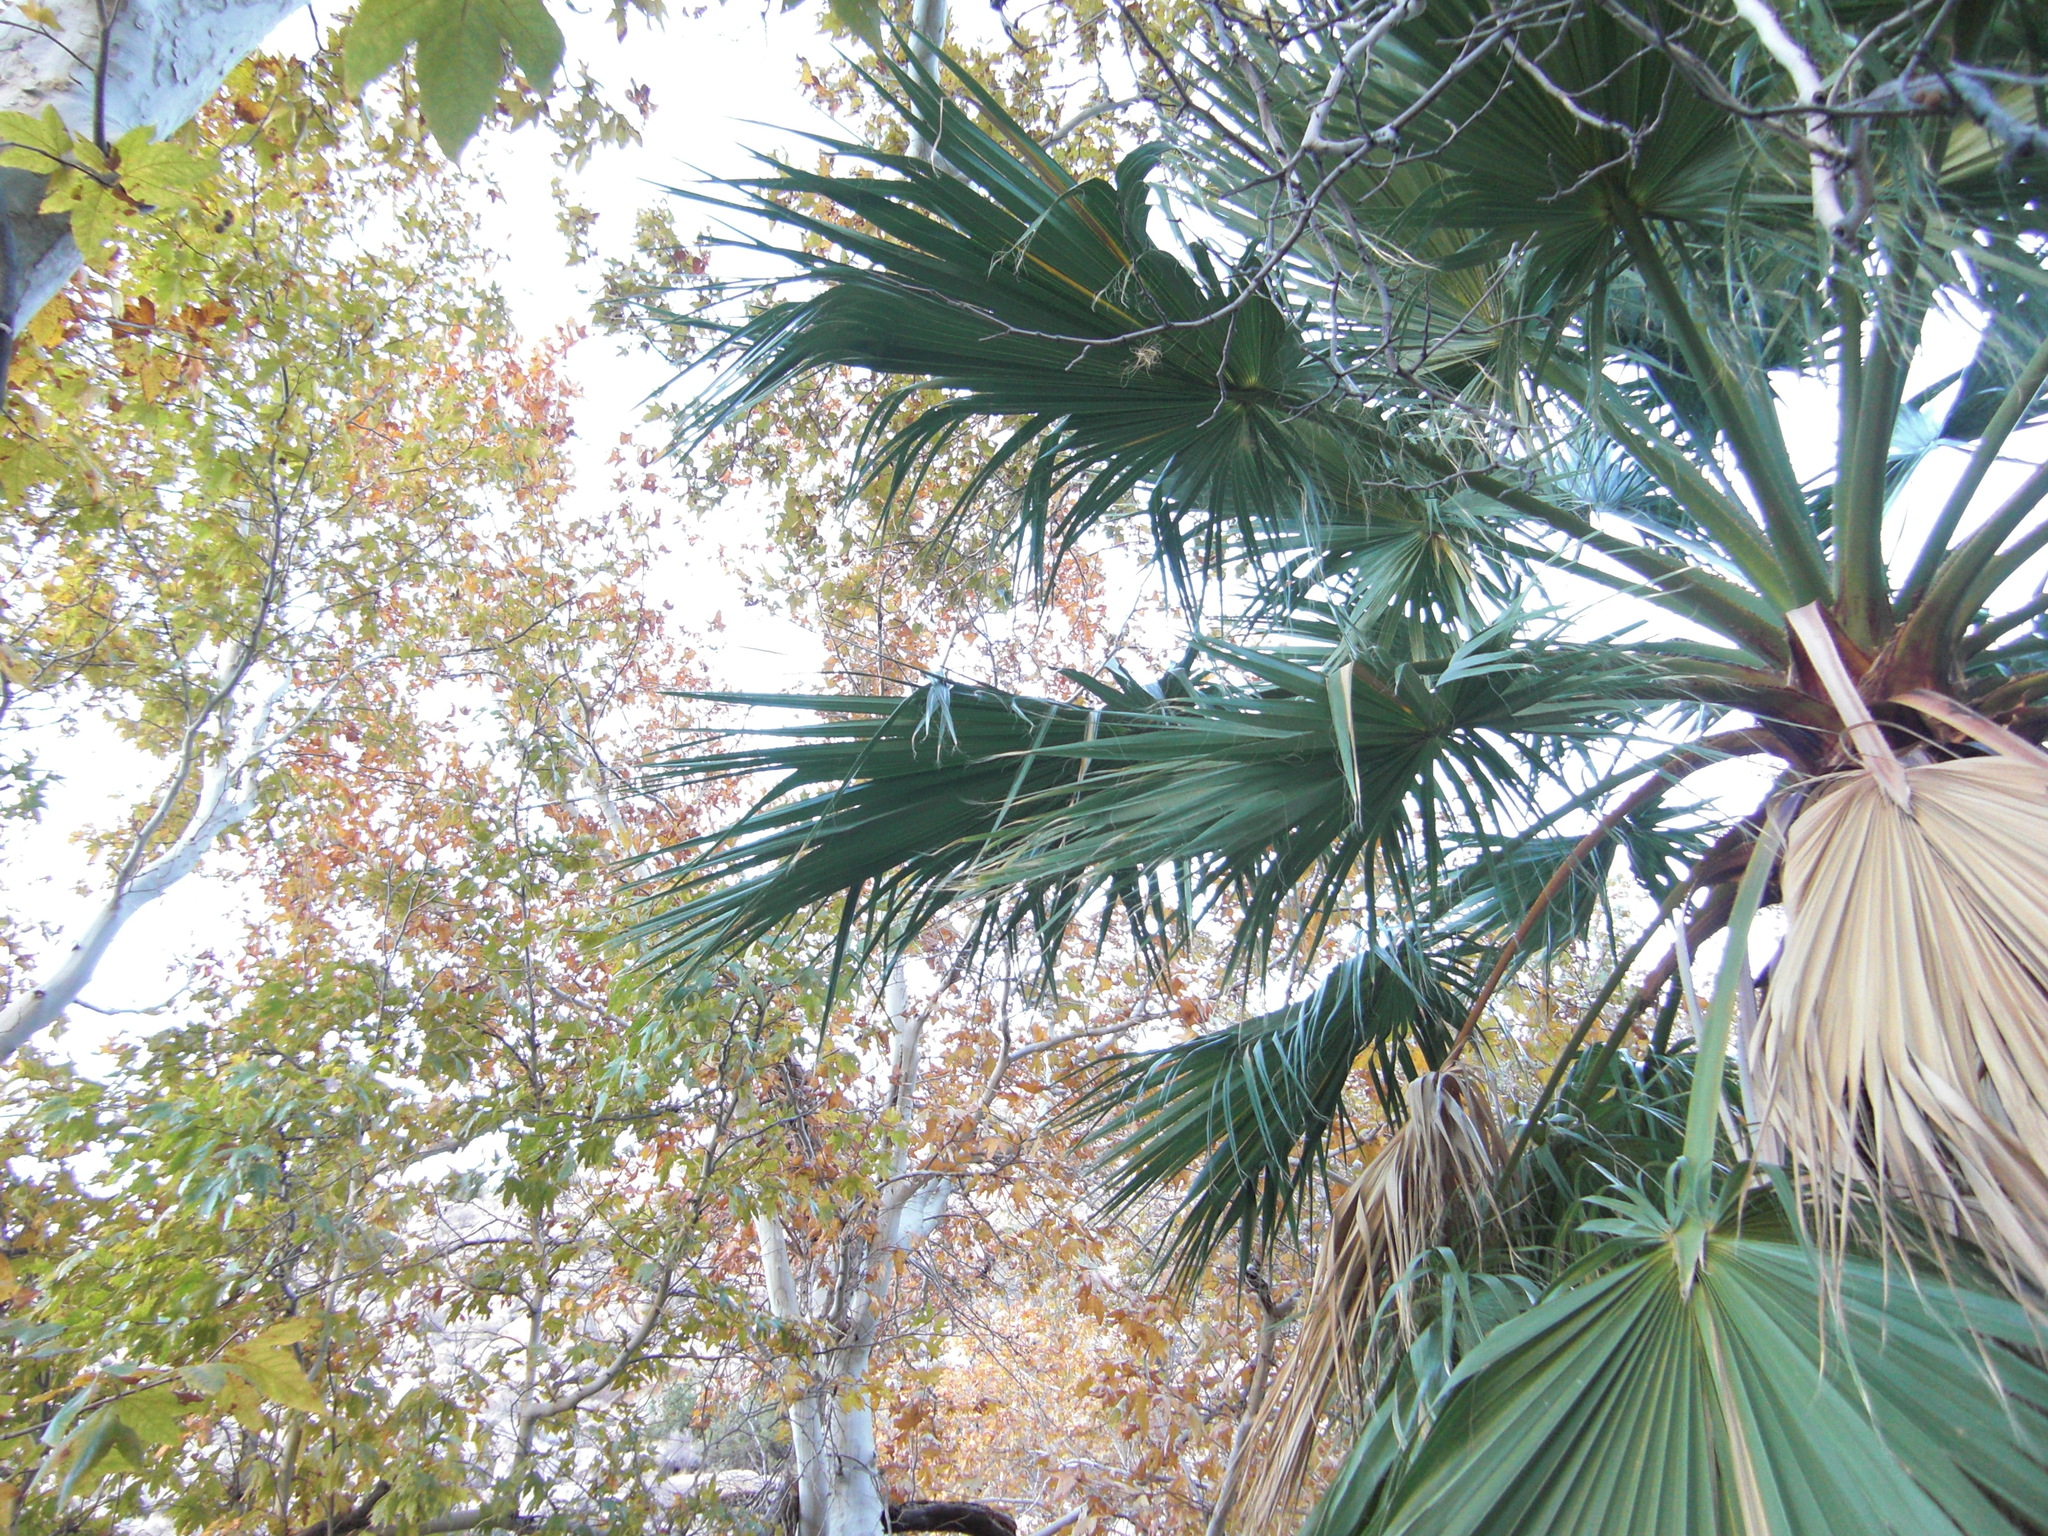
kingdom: Plantae
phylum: Tracheophyta
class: Liliopsida
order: Arecales
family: Arecaceae
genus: Washingtonia
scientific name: Washingtonia filifera
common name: California fan palm
